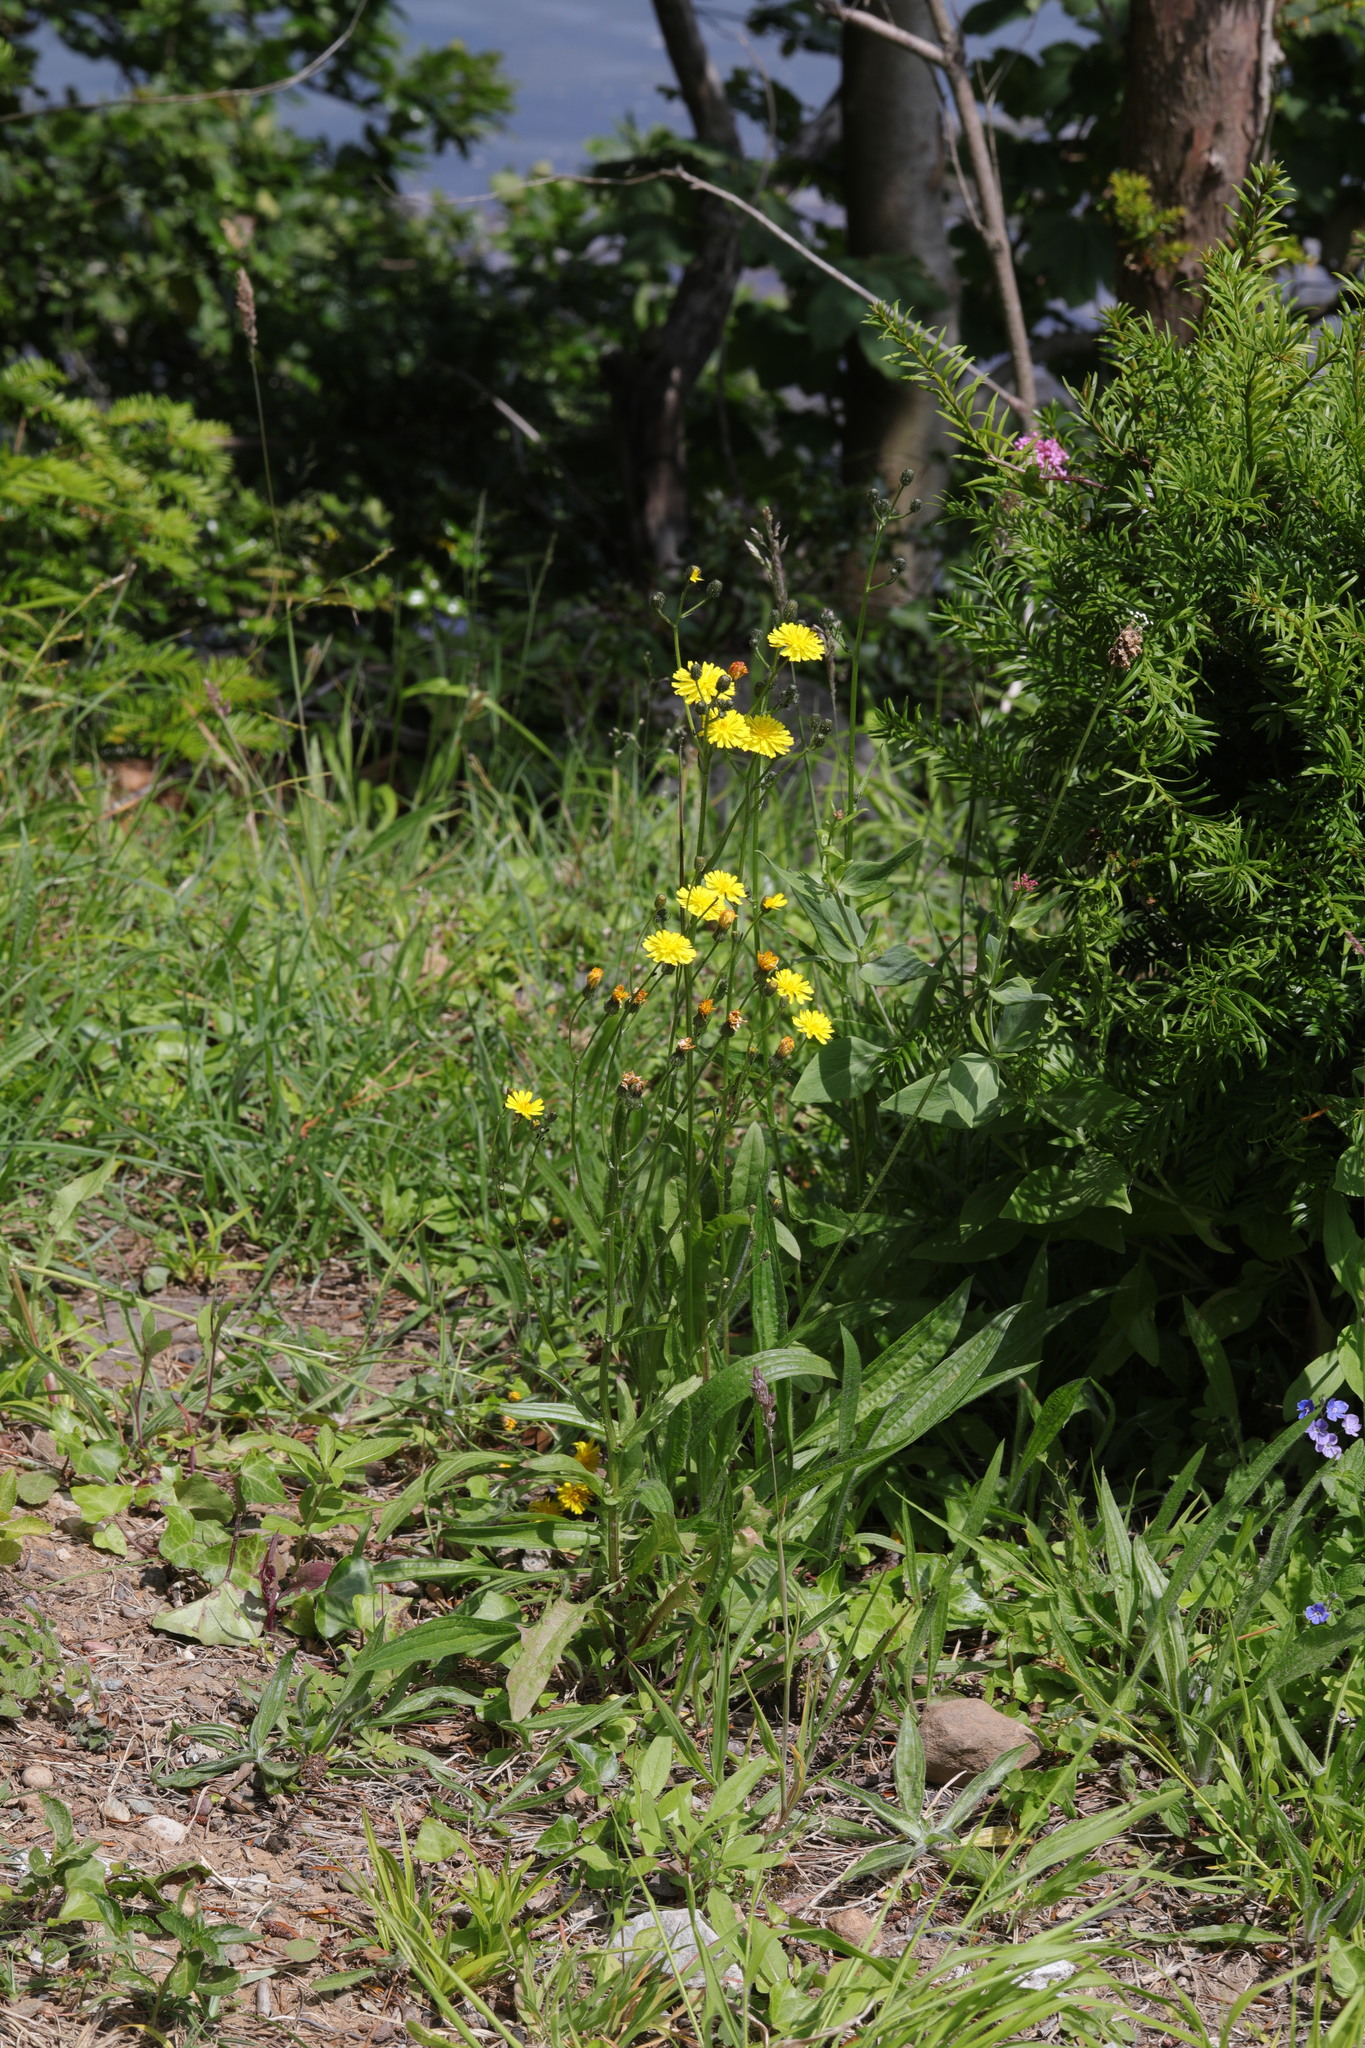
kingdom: Plantae
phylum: Tracheophyta
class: Magnoliopsida
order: Asterales
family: Asteraceae
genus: Lapsana
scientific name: Lapsana communis
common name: Nipplewort
